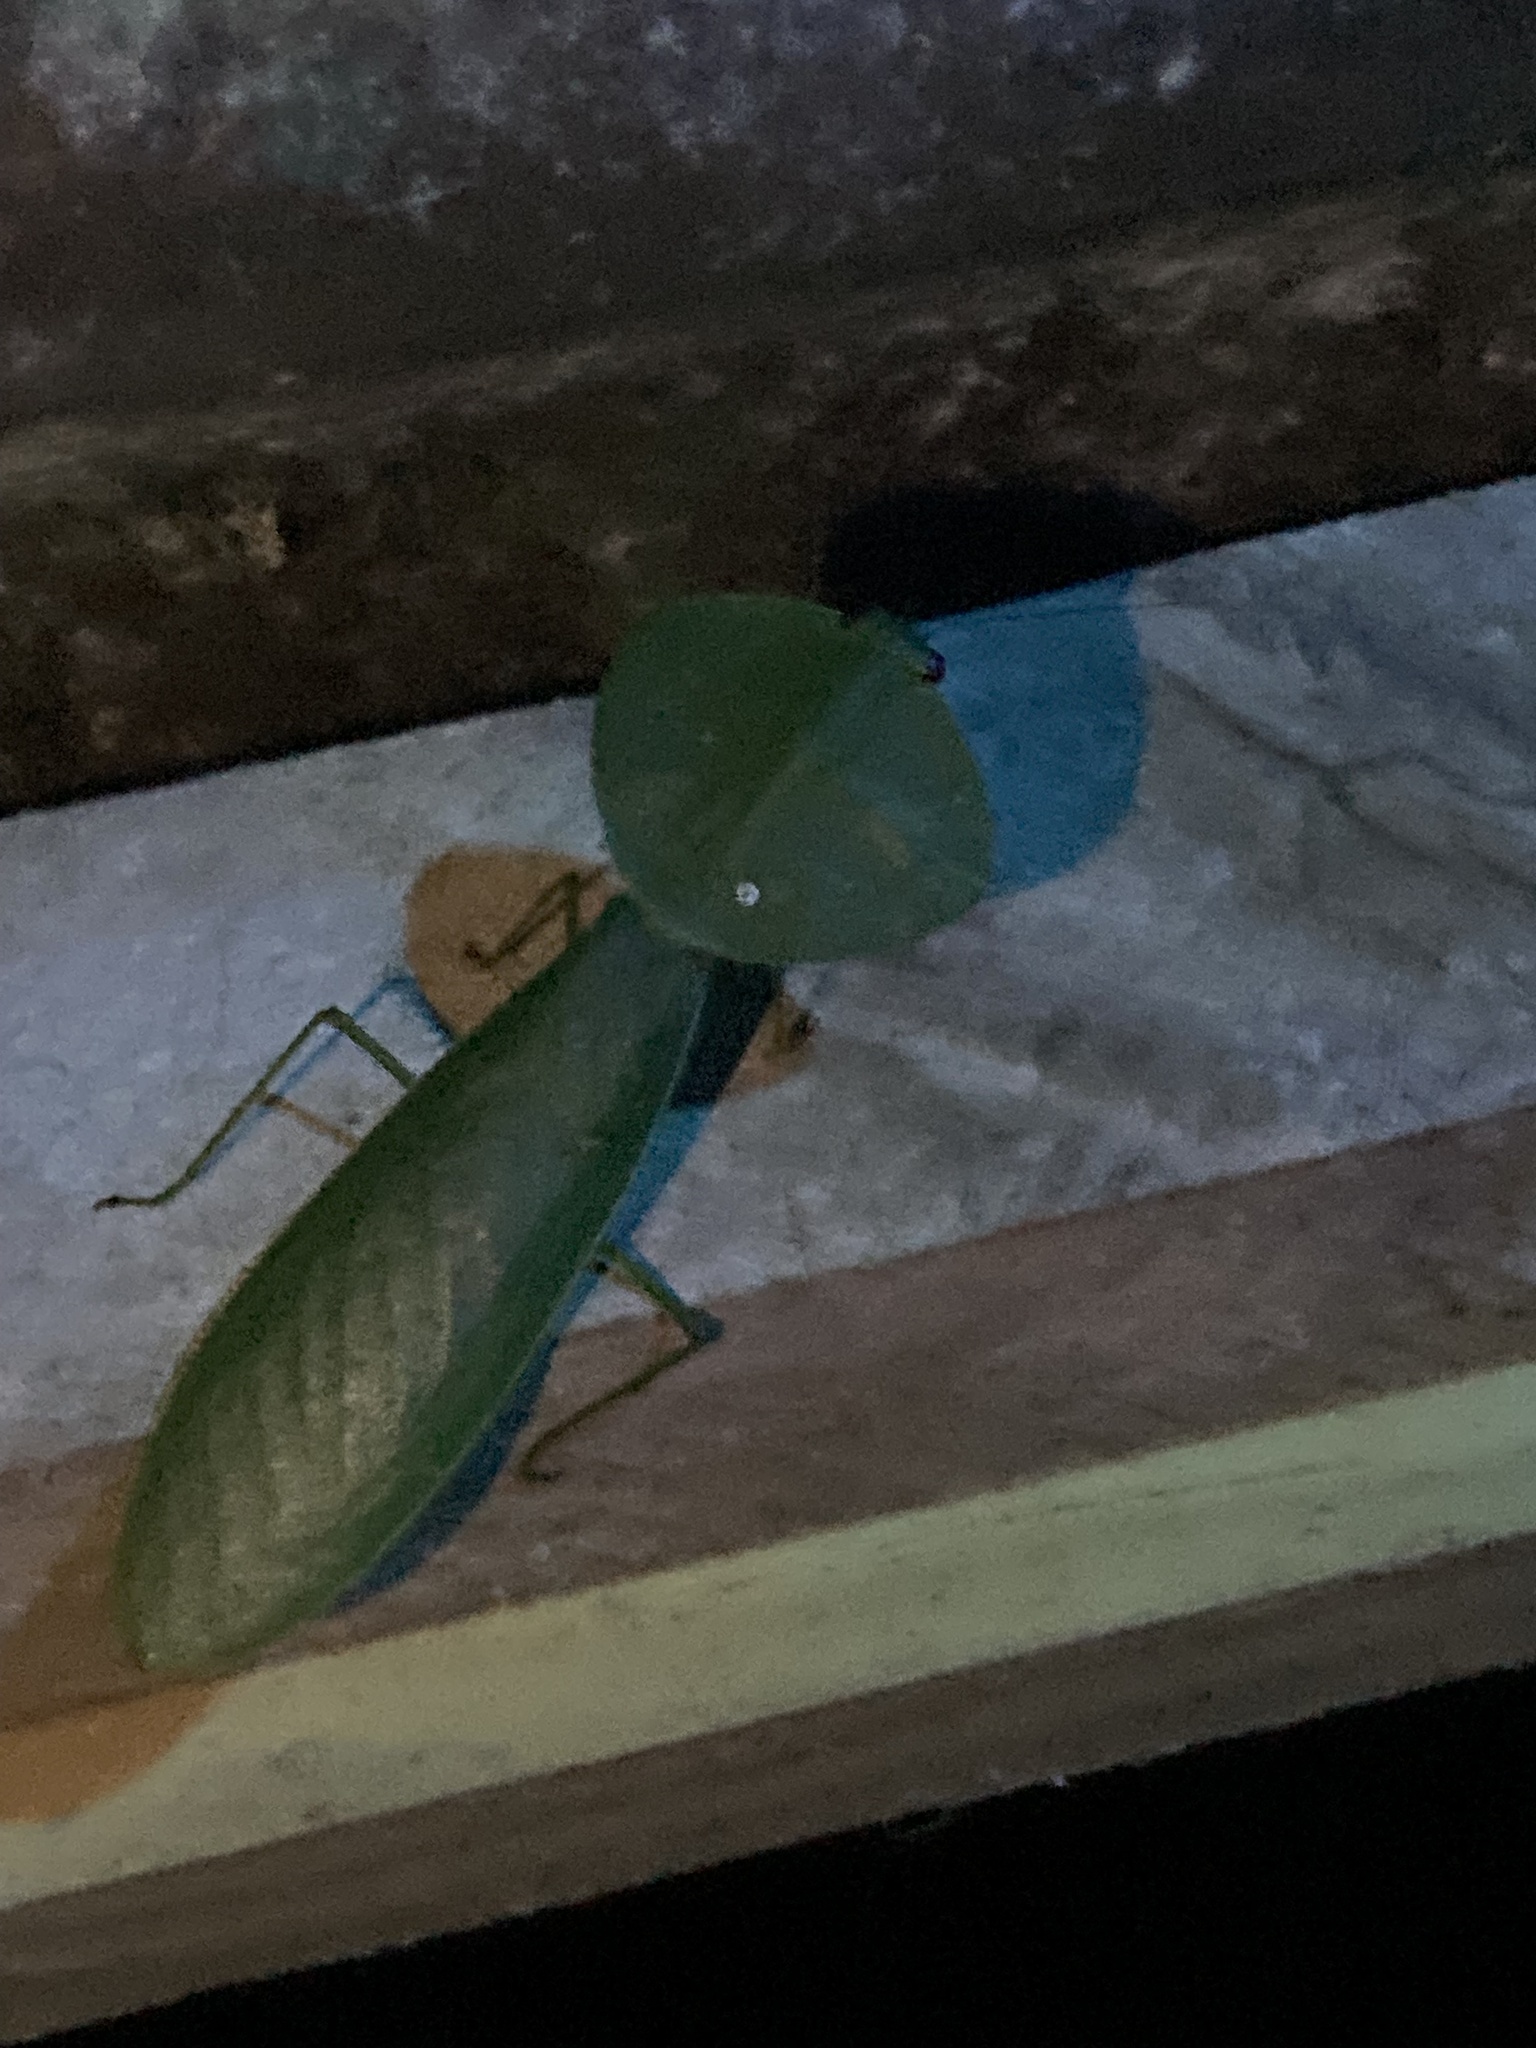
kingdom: Animalia
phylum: Arthropoda
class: Insecta
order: Mantodea
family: Mantidae
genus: Choeradodis
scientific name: Choeradodis rhombicollis
